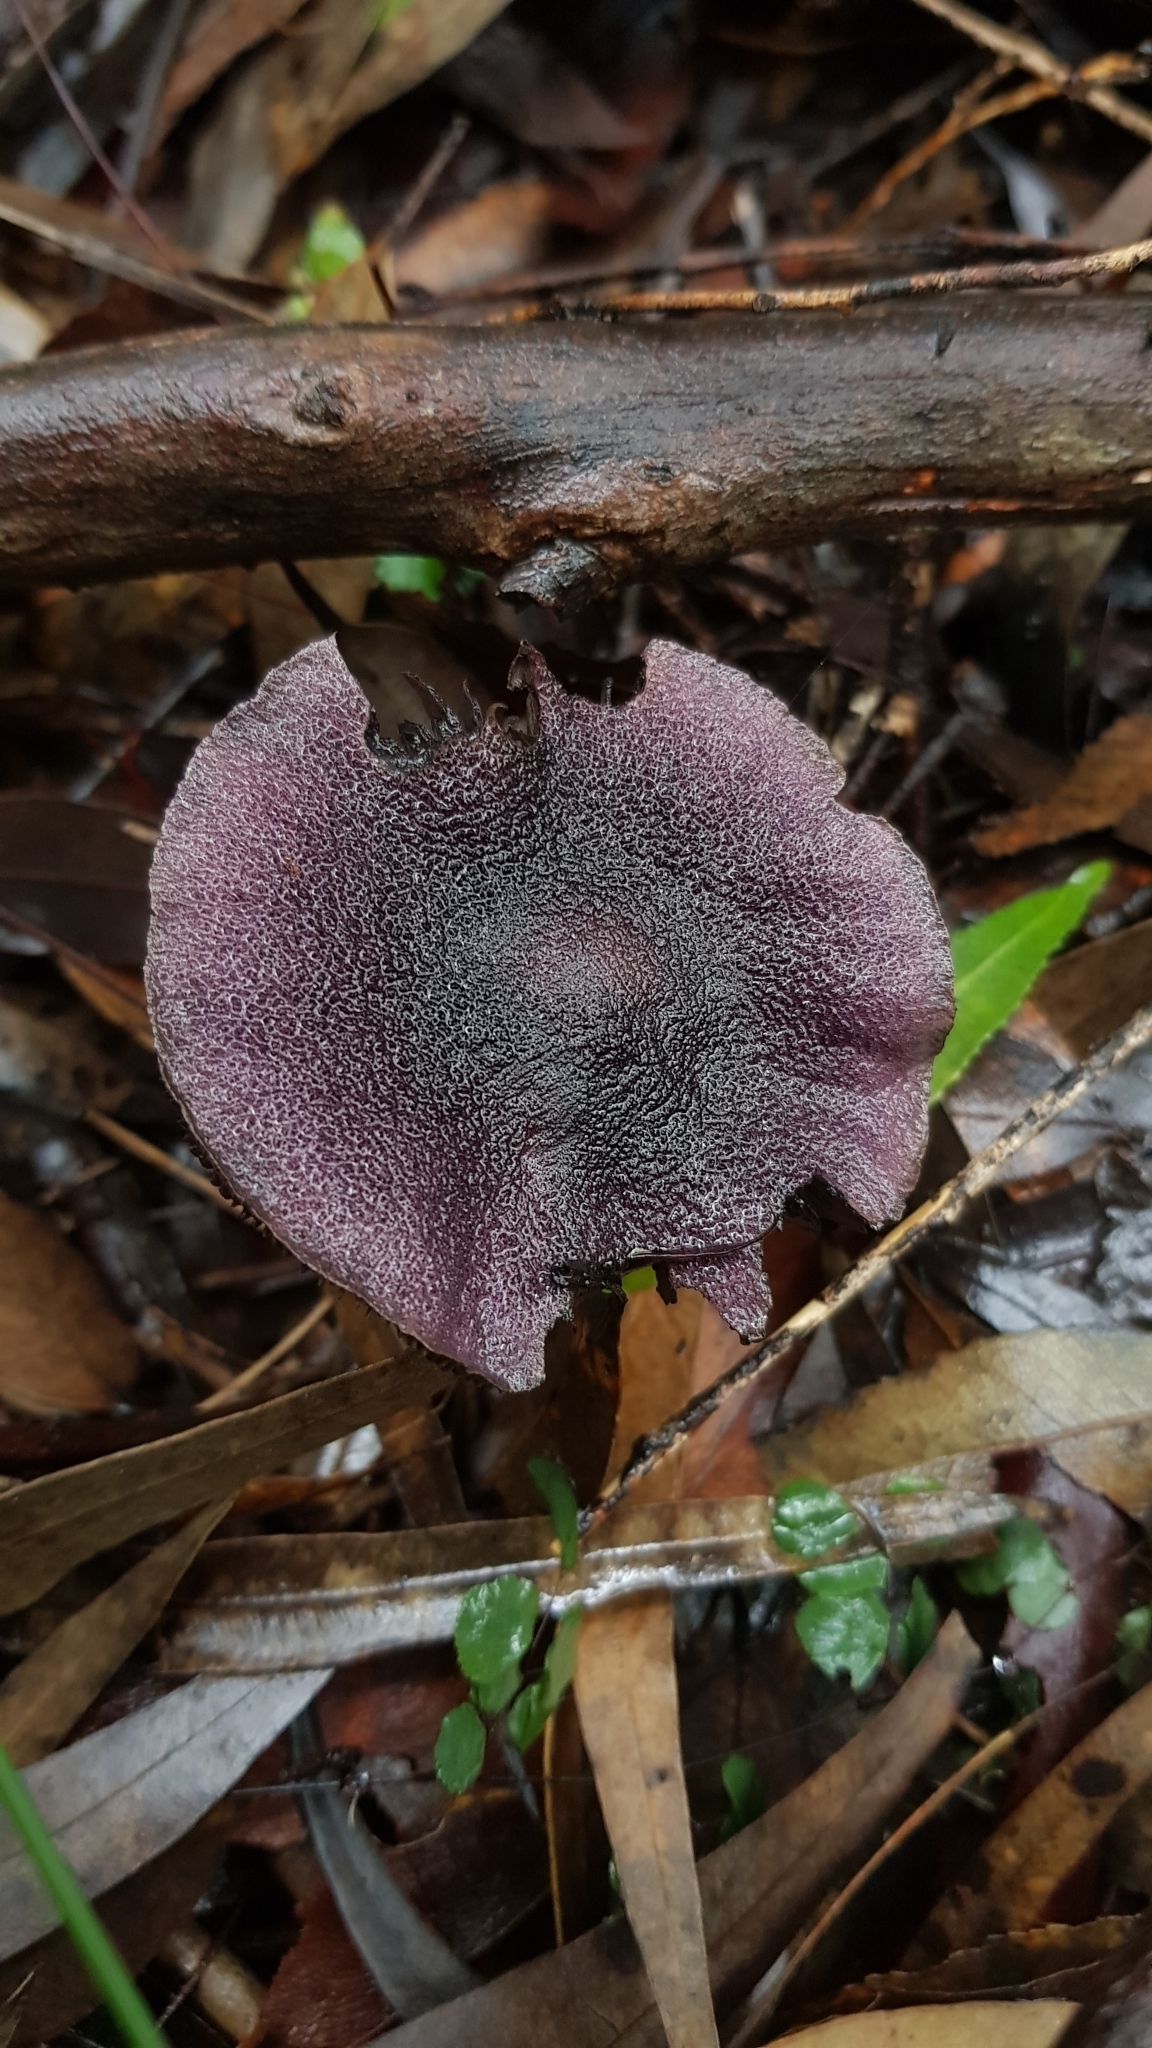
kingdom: Fungi
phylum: Basidiomycota
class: Agaricomycetes
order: Agaricales
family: Cortinariaceae
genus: Cortinarius
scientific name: Cortinarius kioloensis
